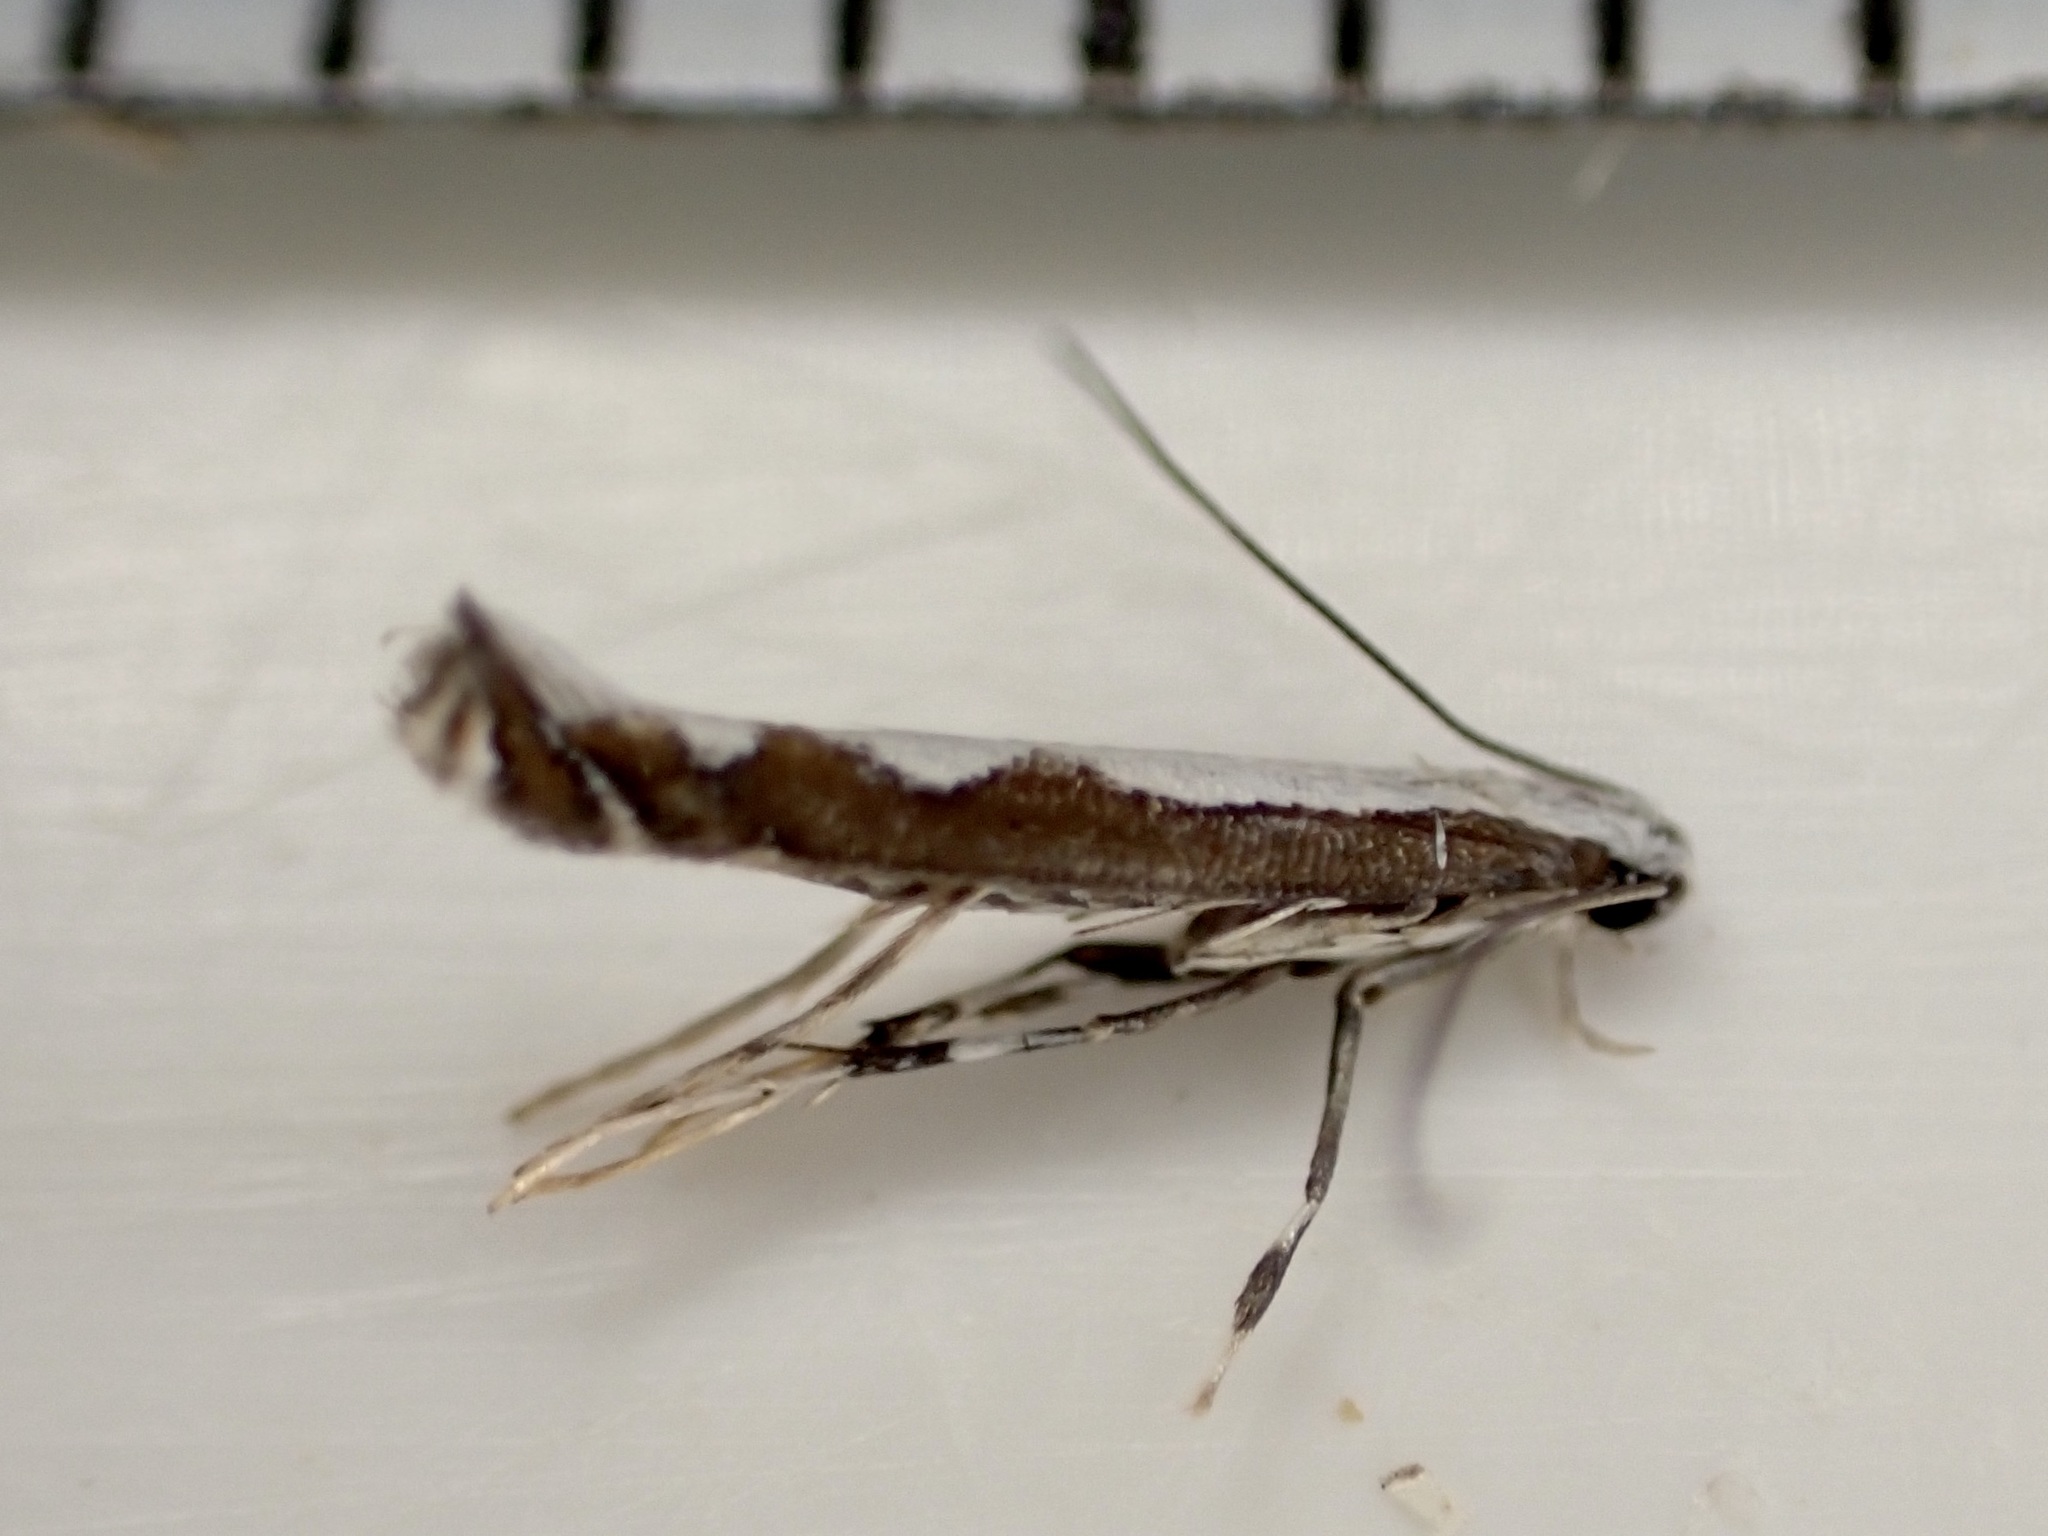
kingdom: Animalia
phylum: Arthropoda
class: Insecta
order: Lepidoptera
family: Gracillariidae
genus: Dialectica
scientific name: Dialectica scalariella
